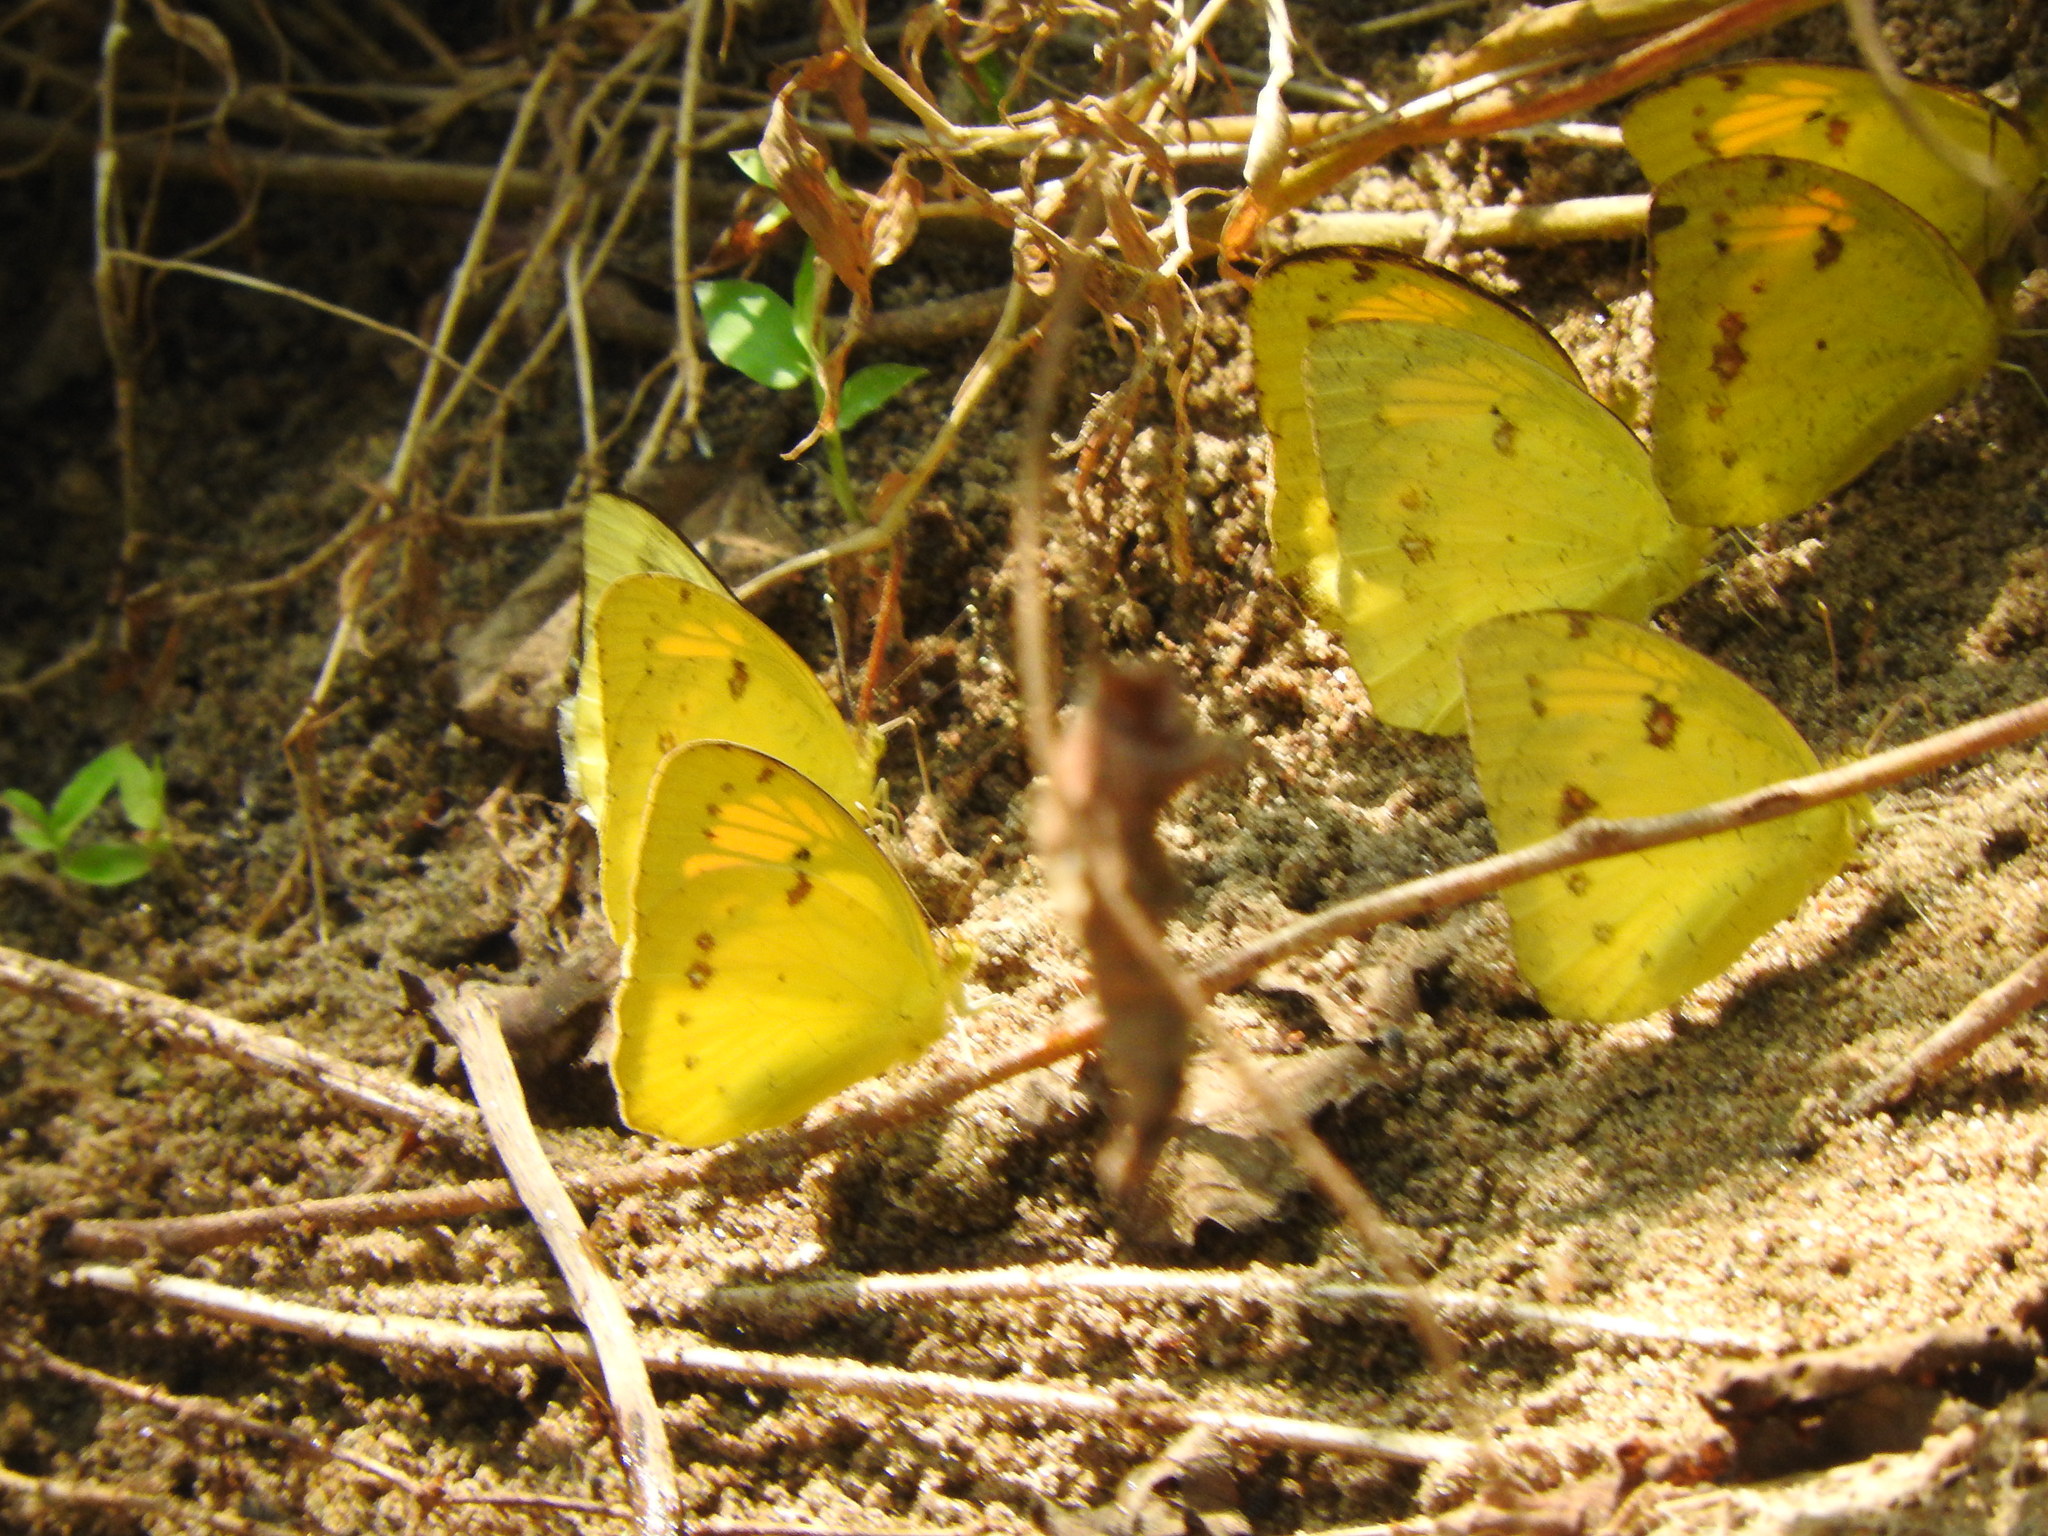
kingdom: Animalia
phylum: Arthropoda
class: Insecta
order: Lepidoptera
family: Pieridae
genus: Ixias
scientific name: Ixias pyrene
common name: Yellow orange tip
